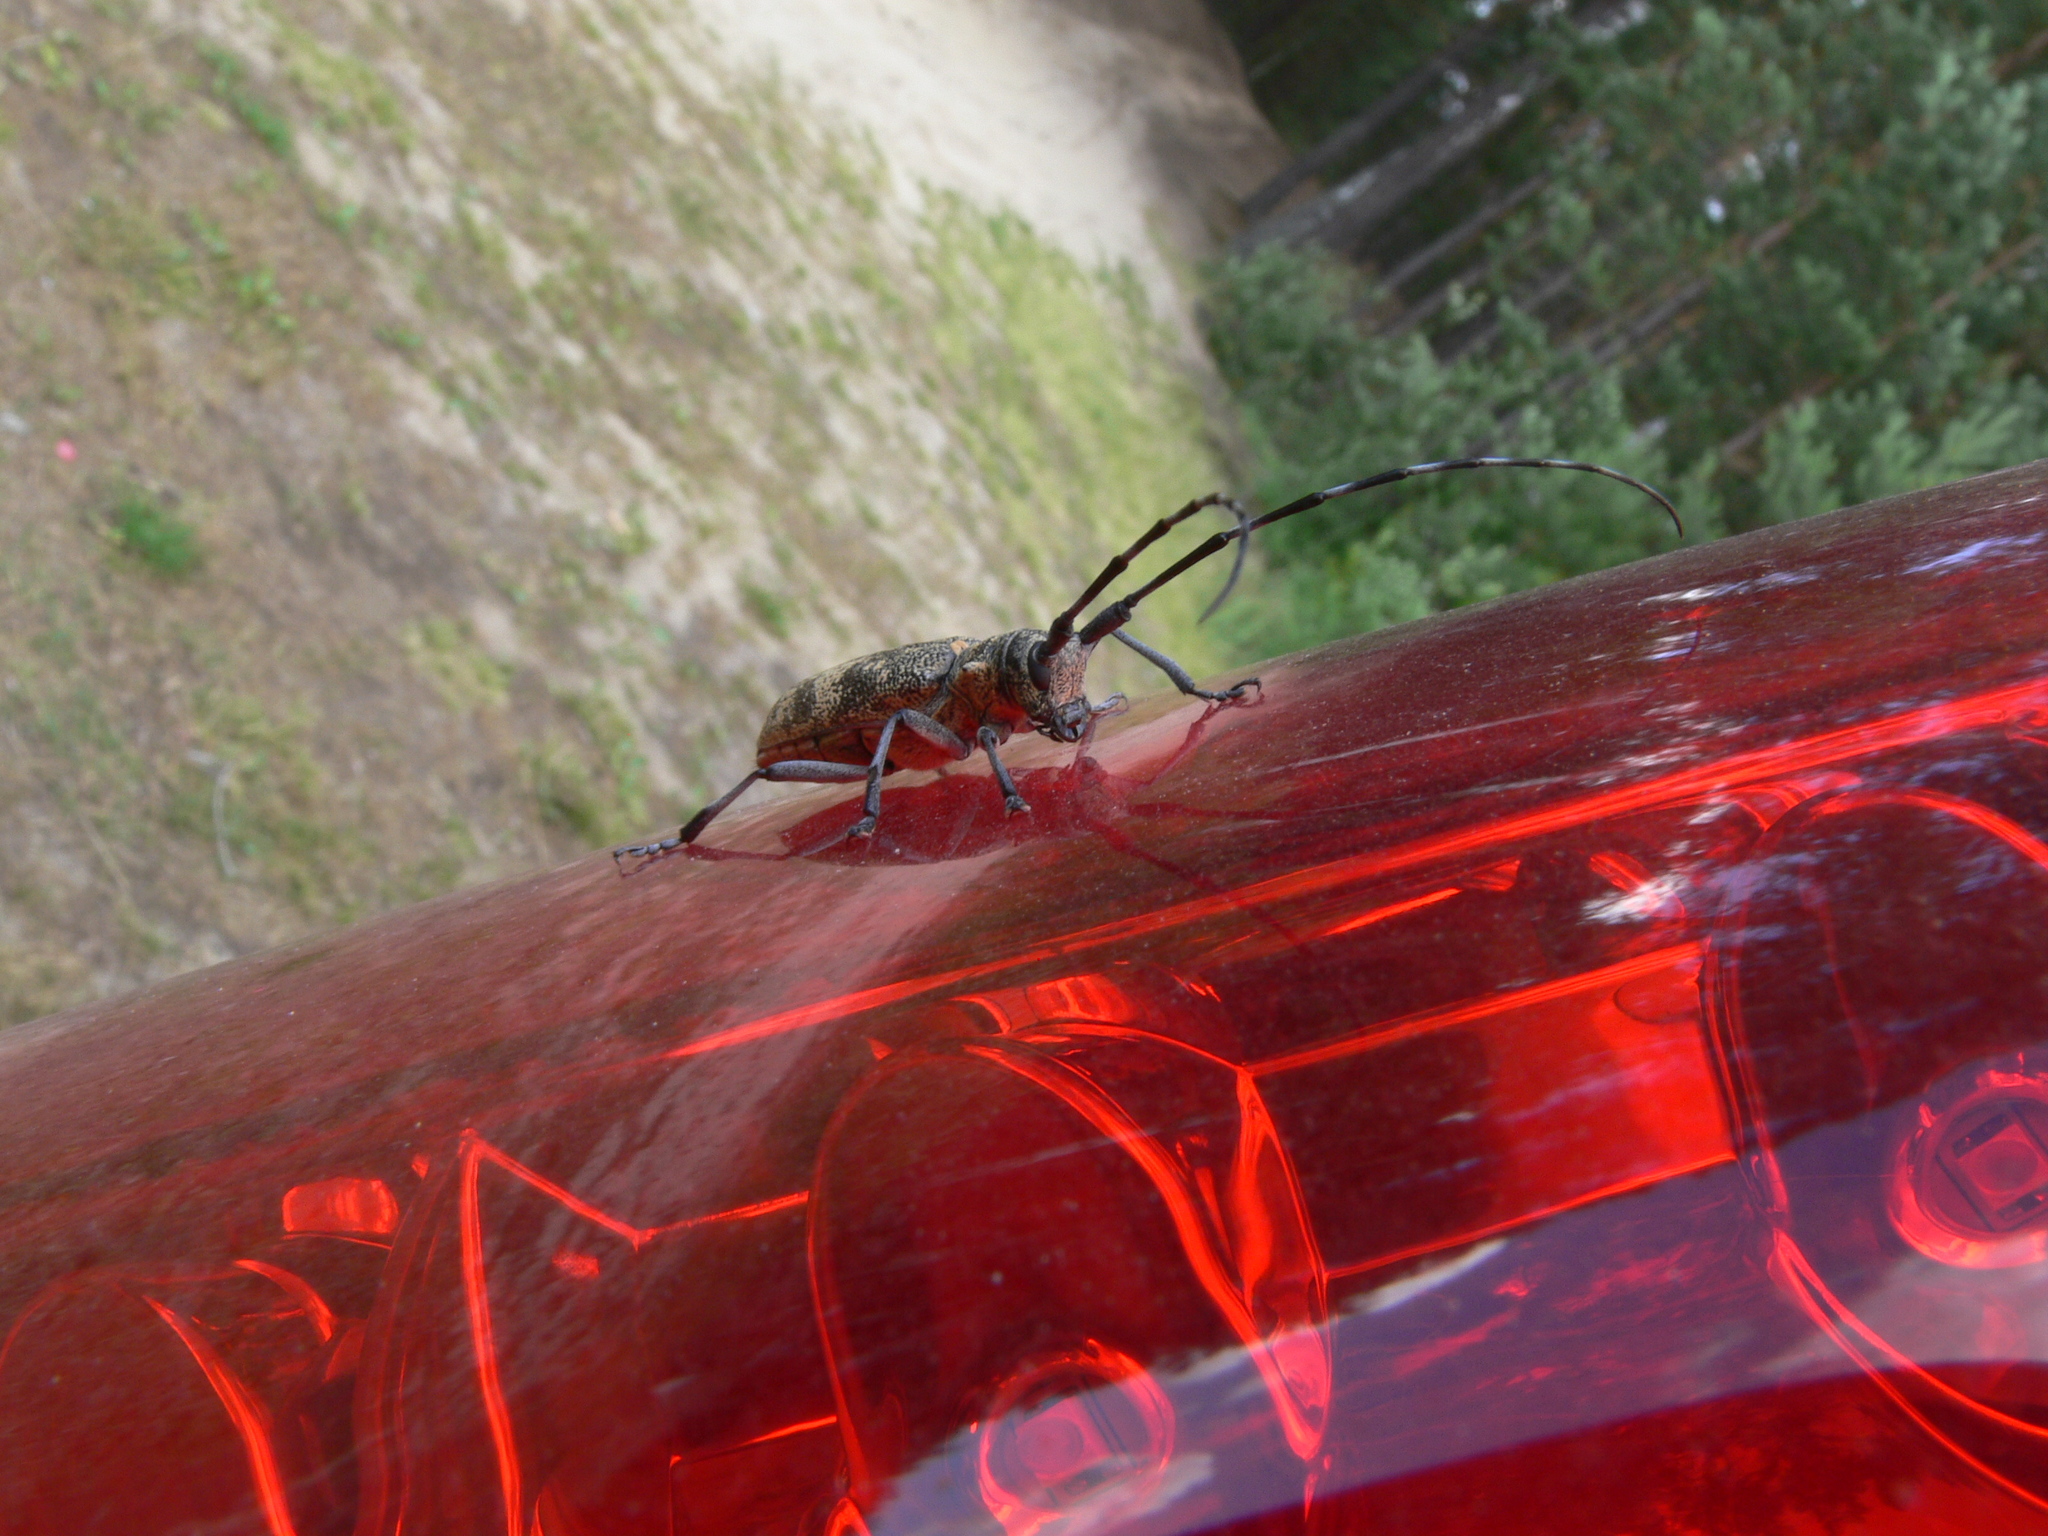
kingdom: Animalia
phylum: Arthropoda
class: Insecta
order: Coleoptera
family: Cerambycidae
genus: Monochamus
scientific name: Monochamus galloprovincialis
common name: Pine sawyer
